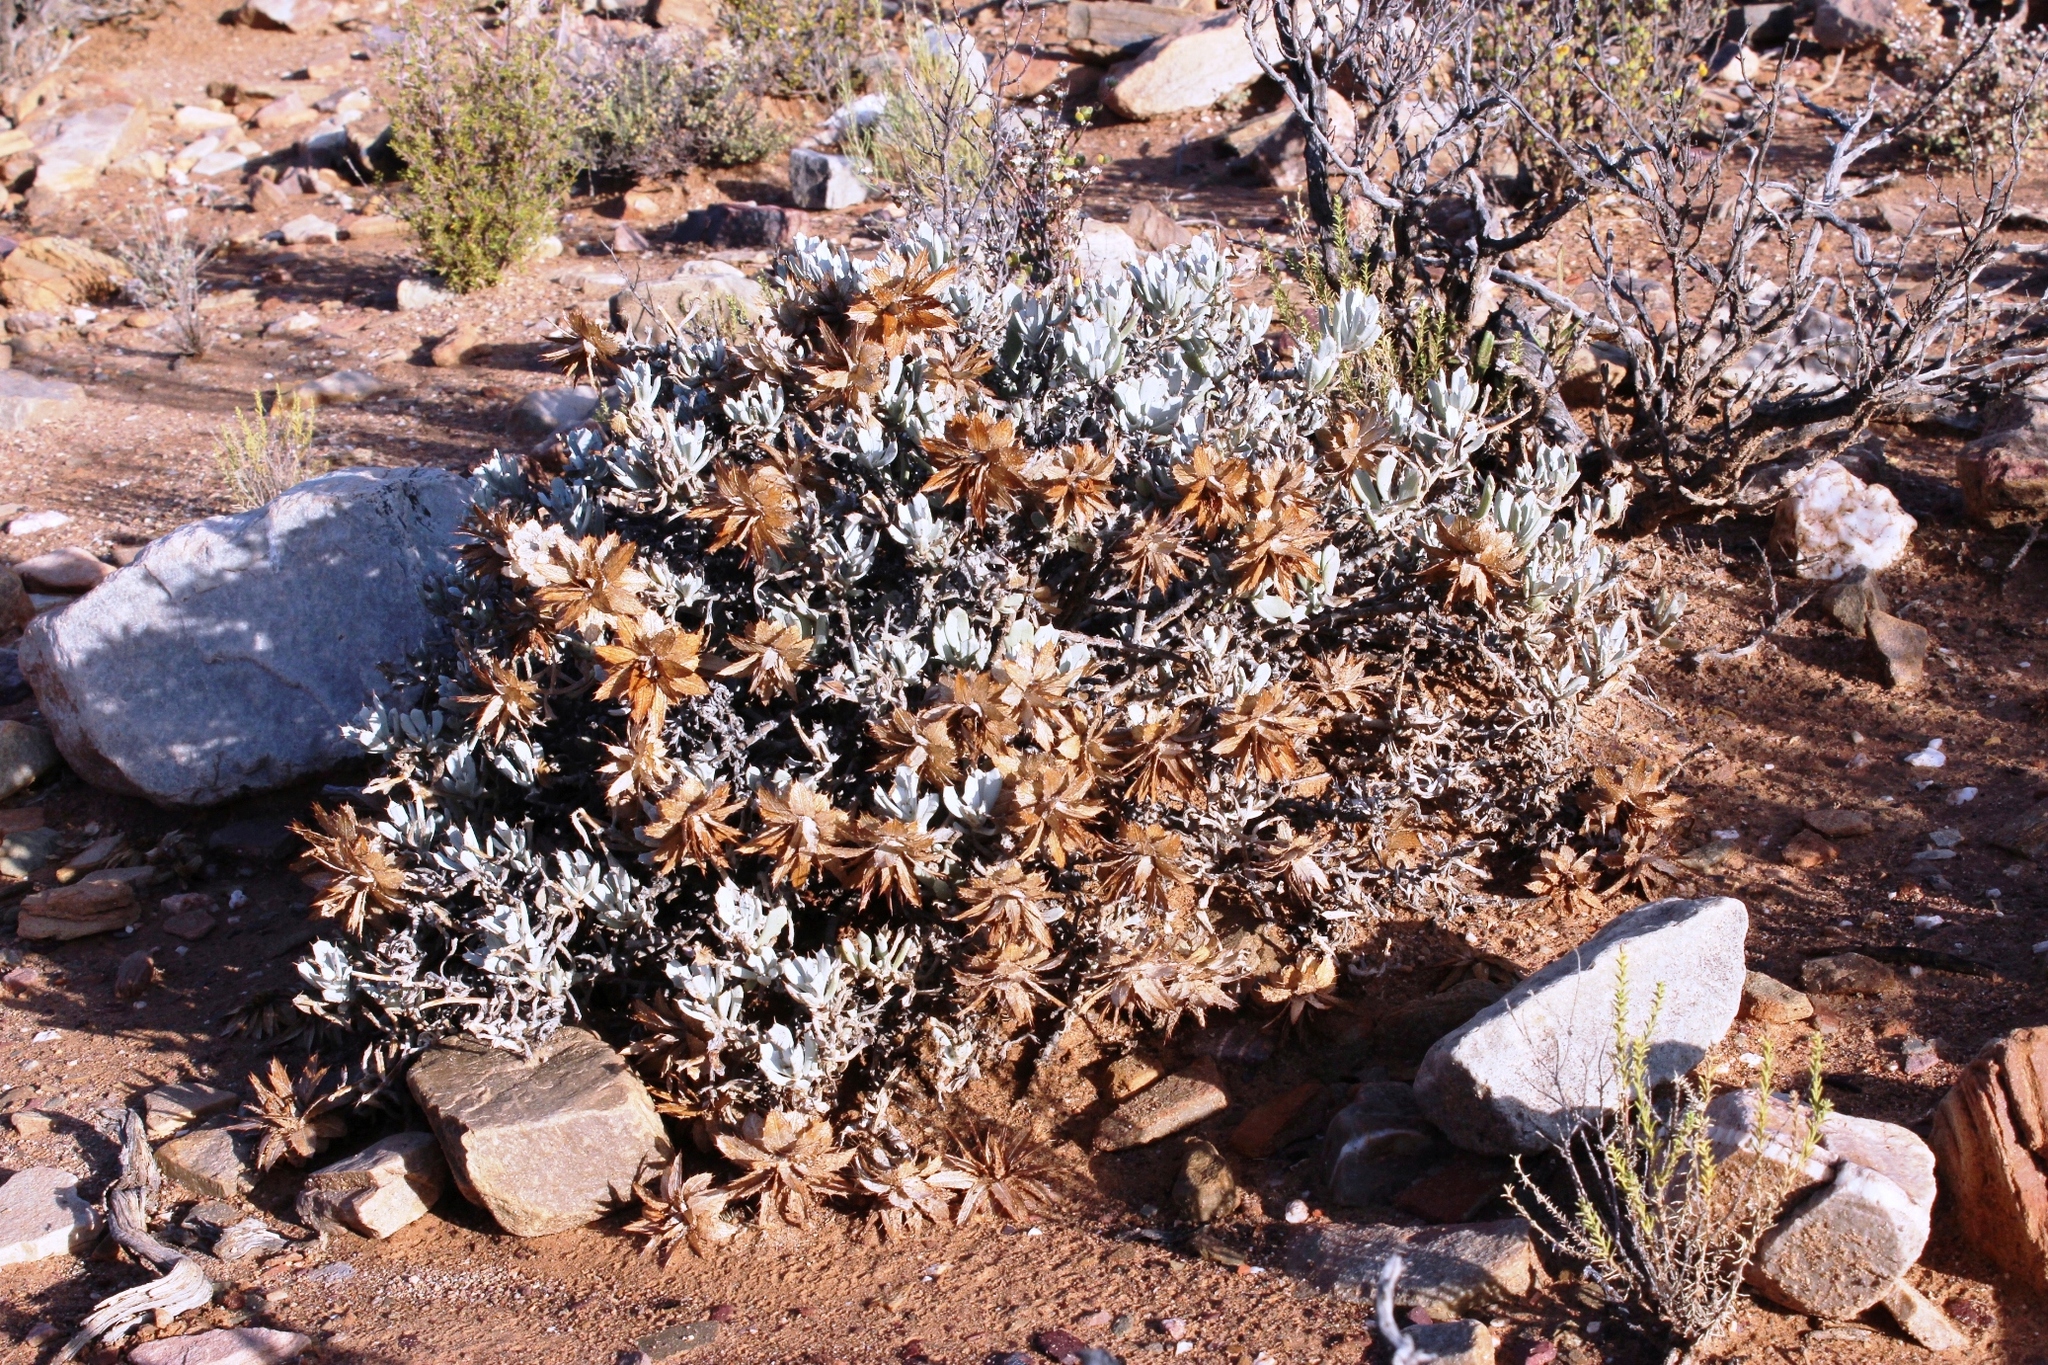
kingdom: Plantae
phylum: Tracheophyta
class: Magnoliopsida
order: Asterales
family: Asteraceae
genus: Berkheya
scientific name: Berkheya cuneata
